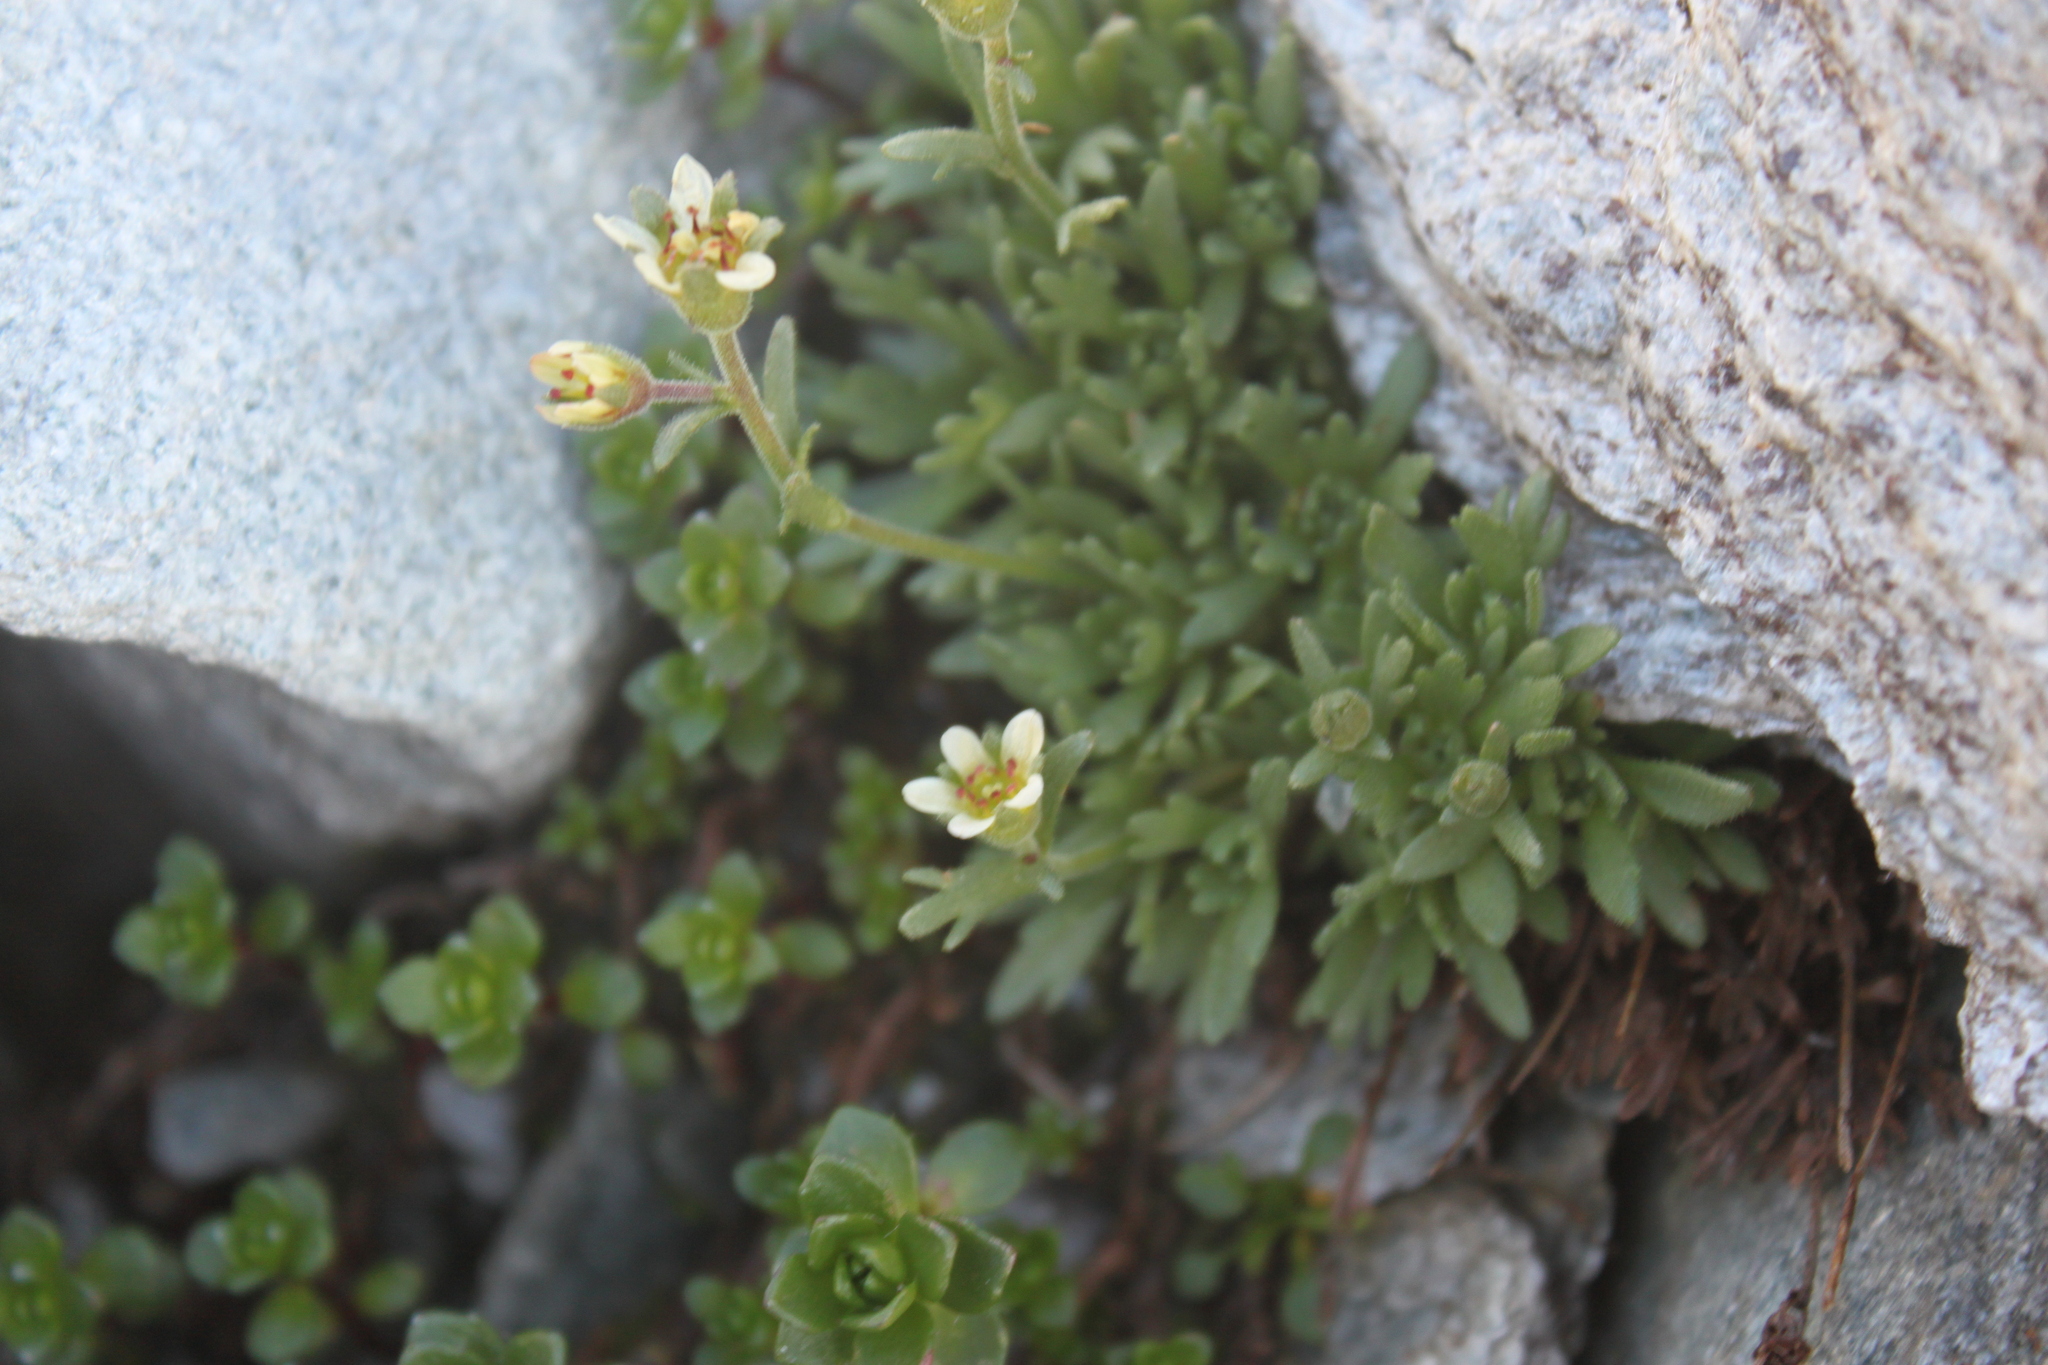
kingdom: Plantae
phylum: Tracheophyta
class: Magnoliopsida
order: Saxifragales
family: Saxifragaceae
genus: Saxifraga
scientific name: Saxifraga exarata
